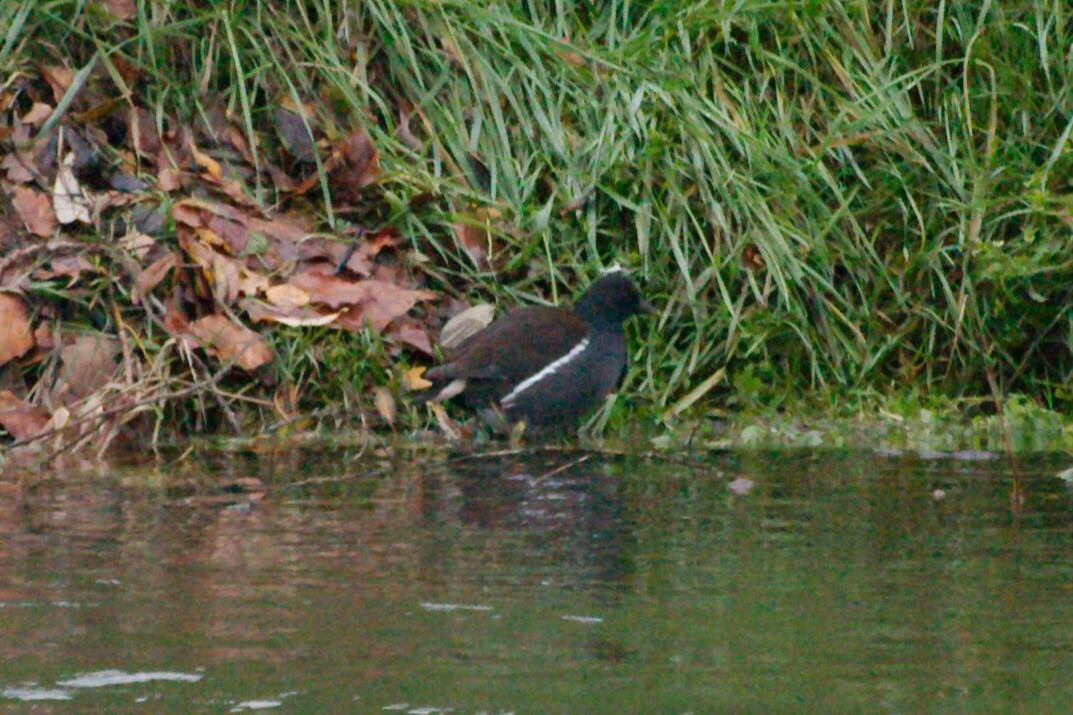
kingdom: Animalia
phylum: Chordata
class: Aves
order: Gruiformes
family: Rallidae
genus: Gallinula
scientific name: Gallinula chloropus
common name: Common moorhen
